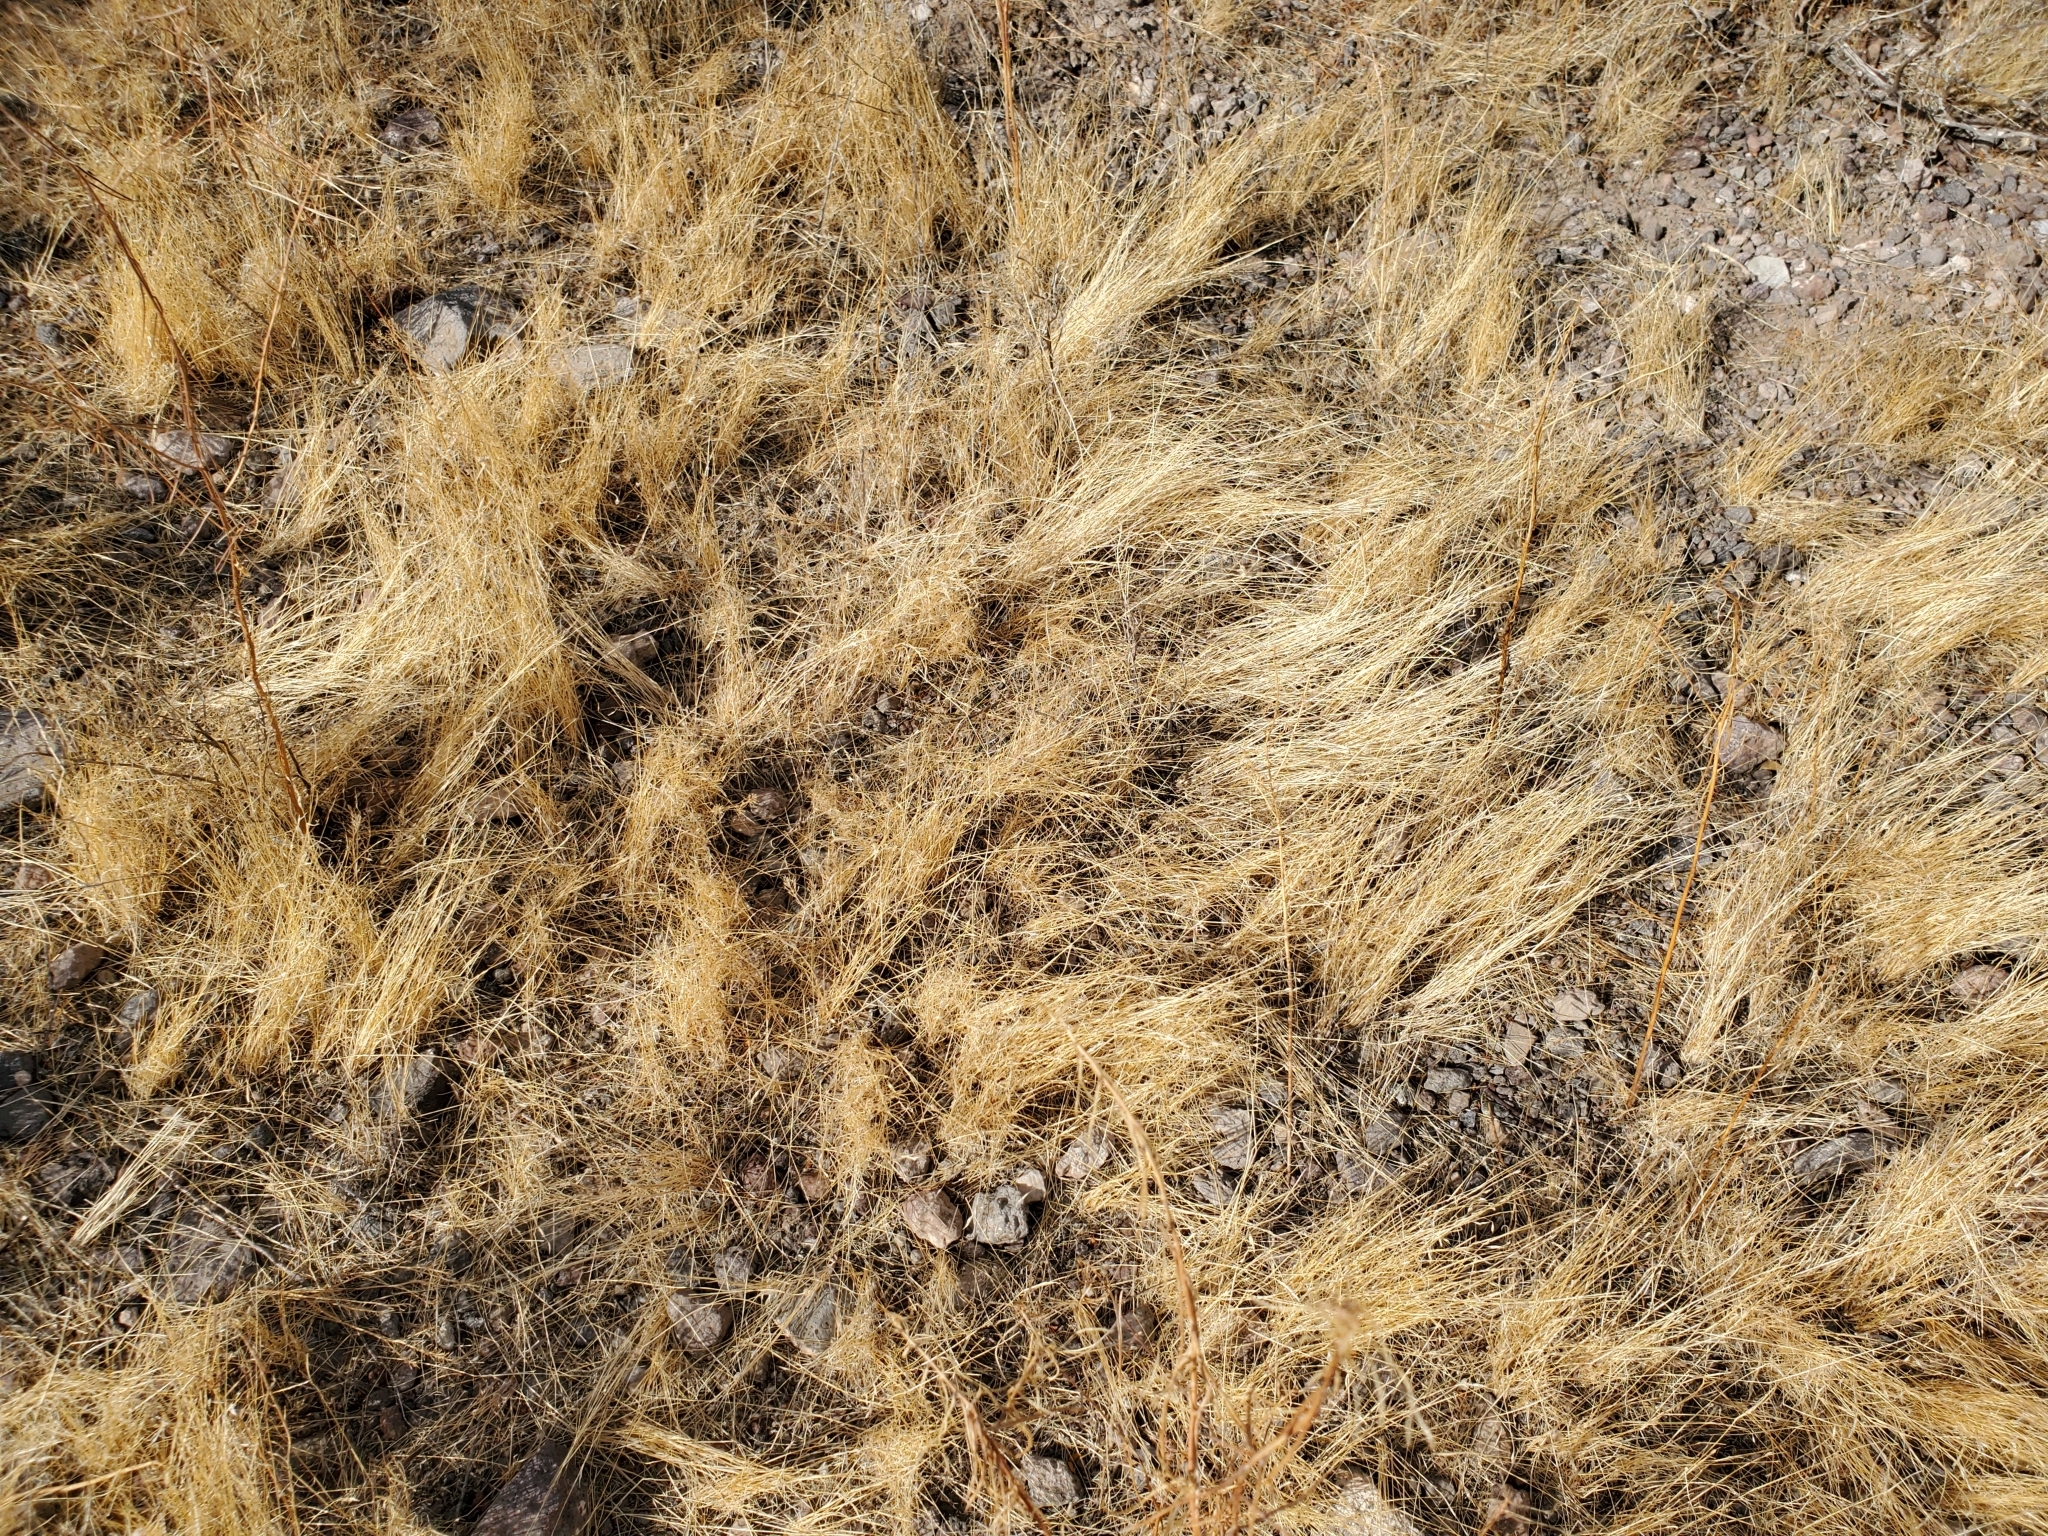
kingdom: Plantae
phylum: Tracheophyta
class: Liliopsida
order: Poales
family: Poaceae
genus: Schismus
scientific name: Schismus barbatus
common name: Kelch-grass
